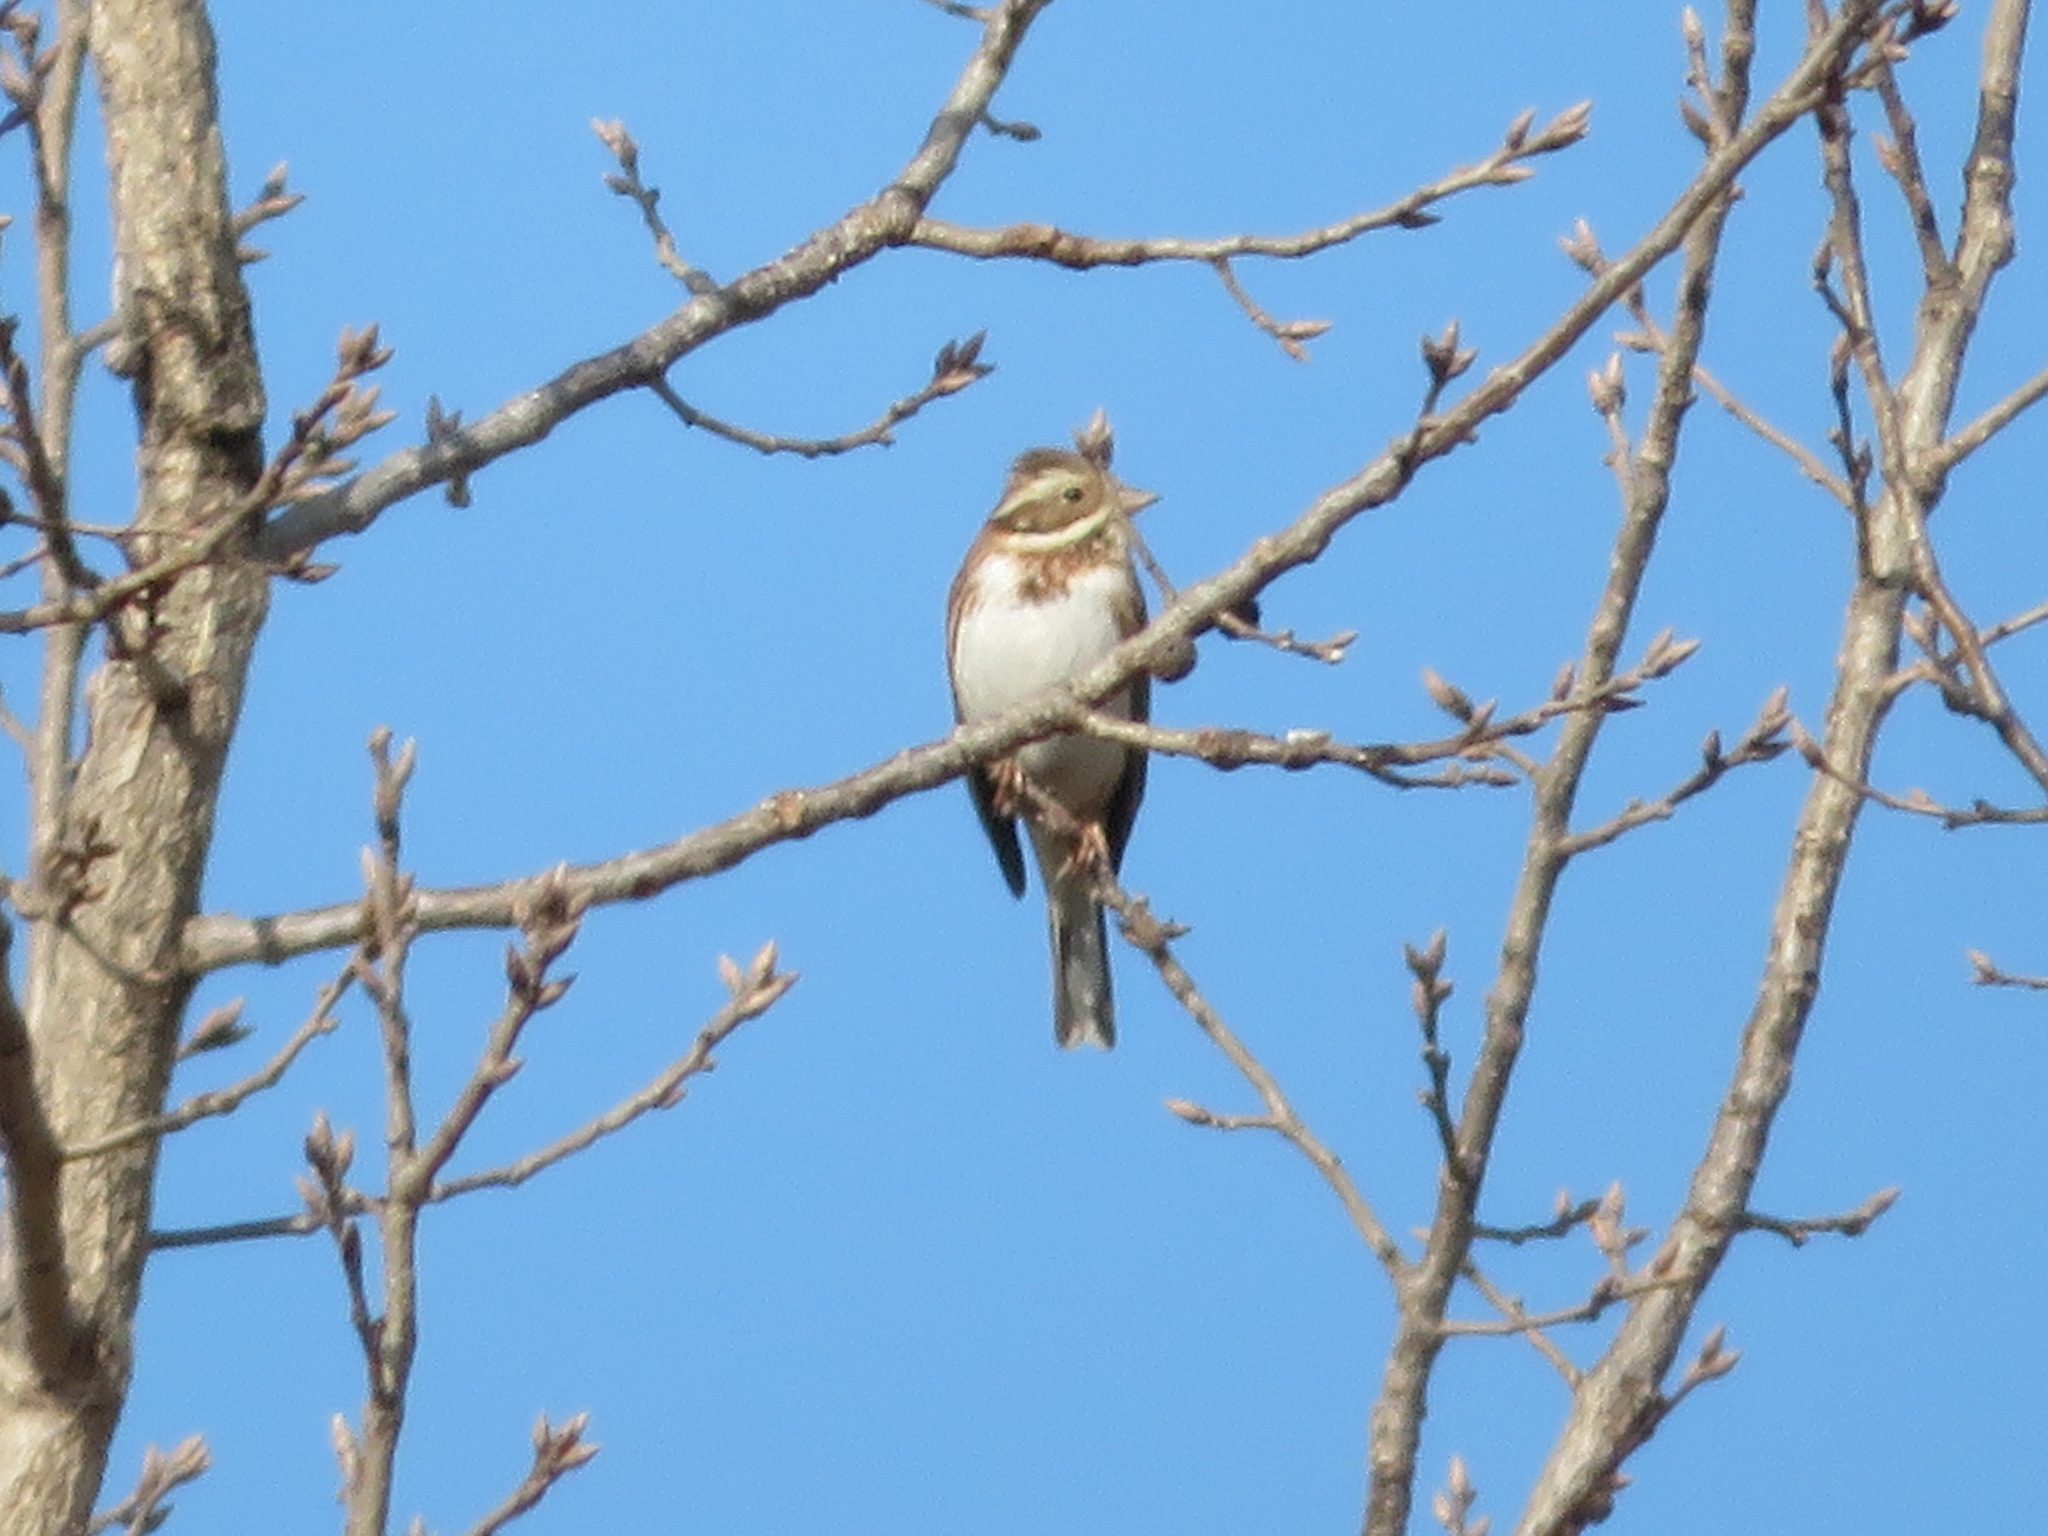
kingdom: Animalia
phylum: Chordata
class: Aves
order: Passeriformes
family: Emberizidae
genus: Emberiza
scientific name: Emberiza rustica
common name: Rustic bunting
